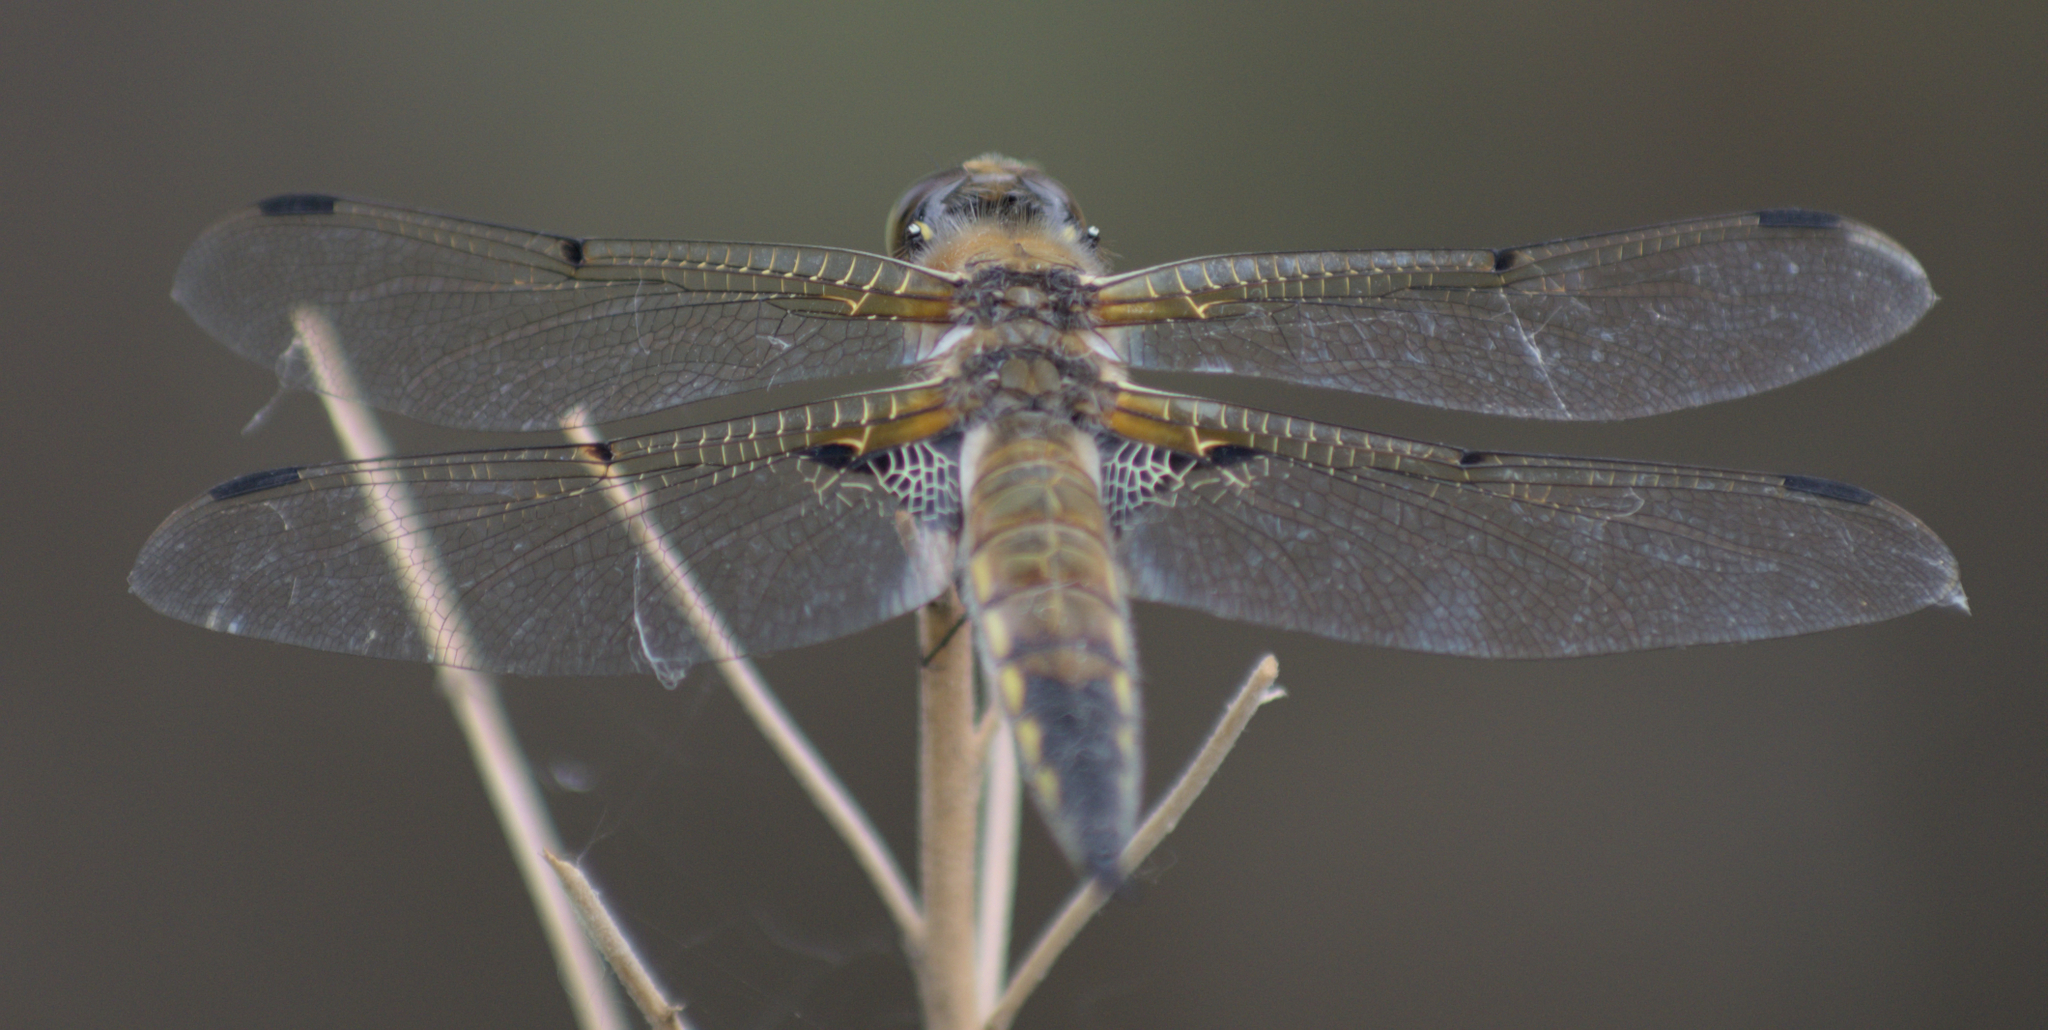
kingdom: Animalia
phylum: Arthropoda
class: Insecta
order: Odonata
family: Libellulidae
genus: Libellula
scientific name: Libellula quadrimaculata
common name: Four-spotted chaser
